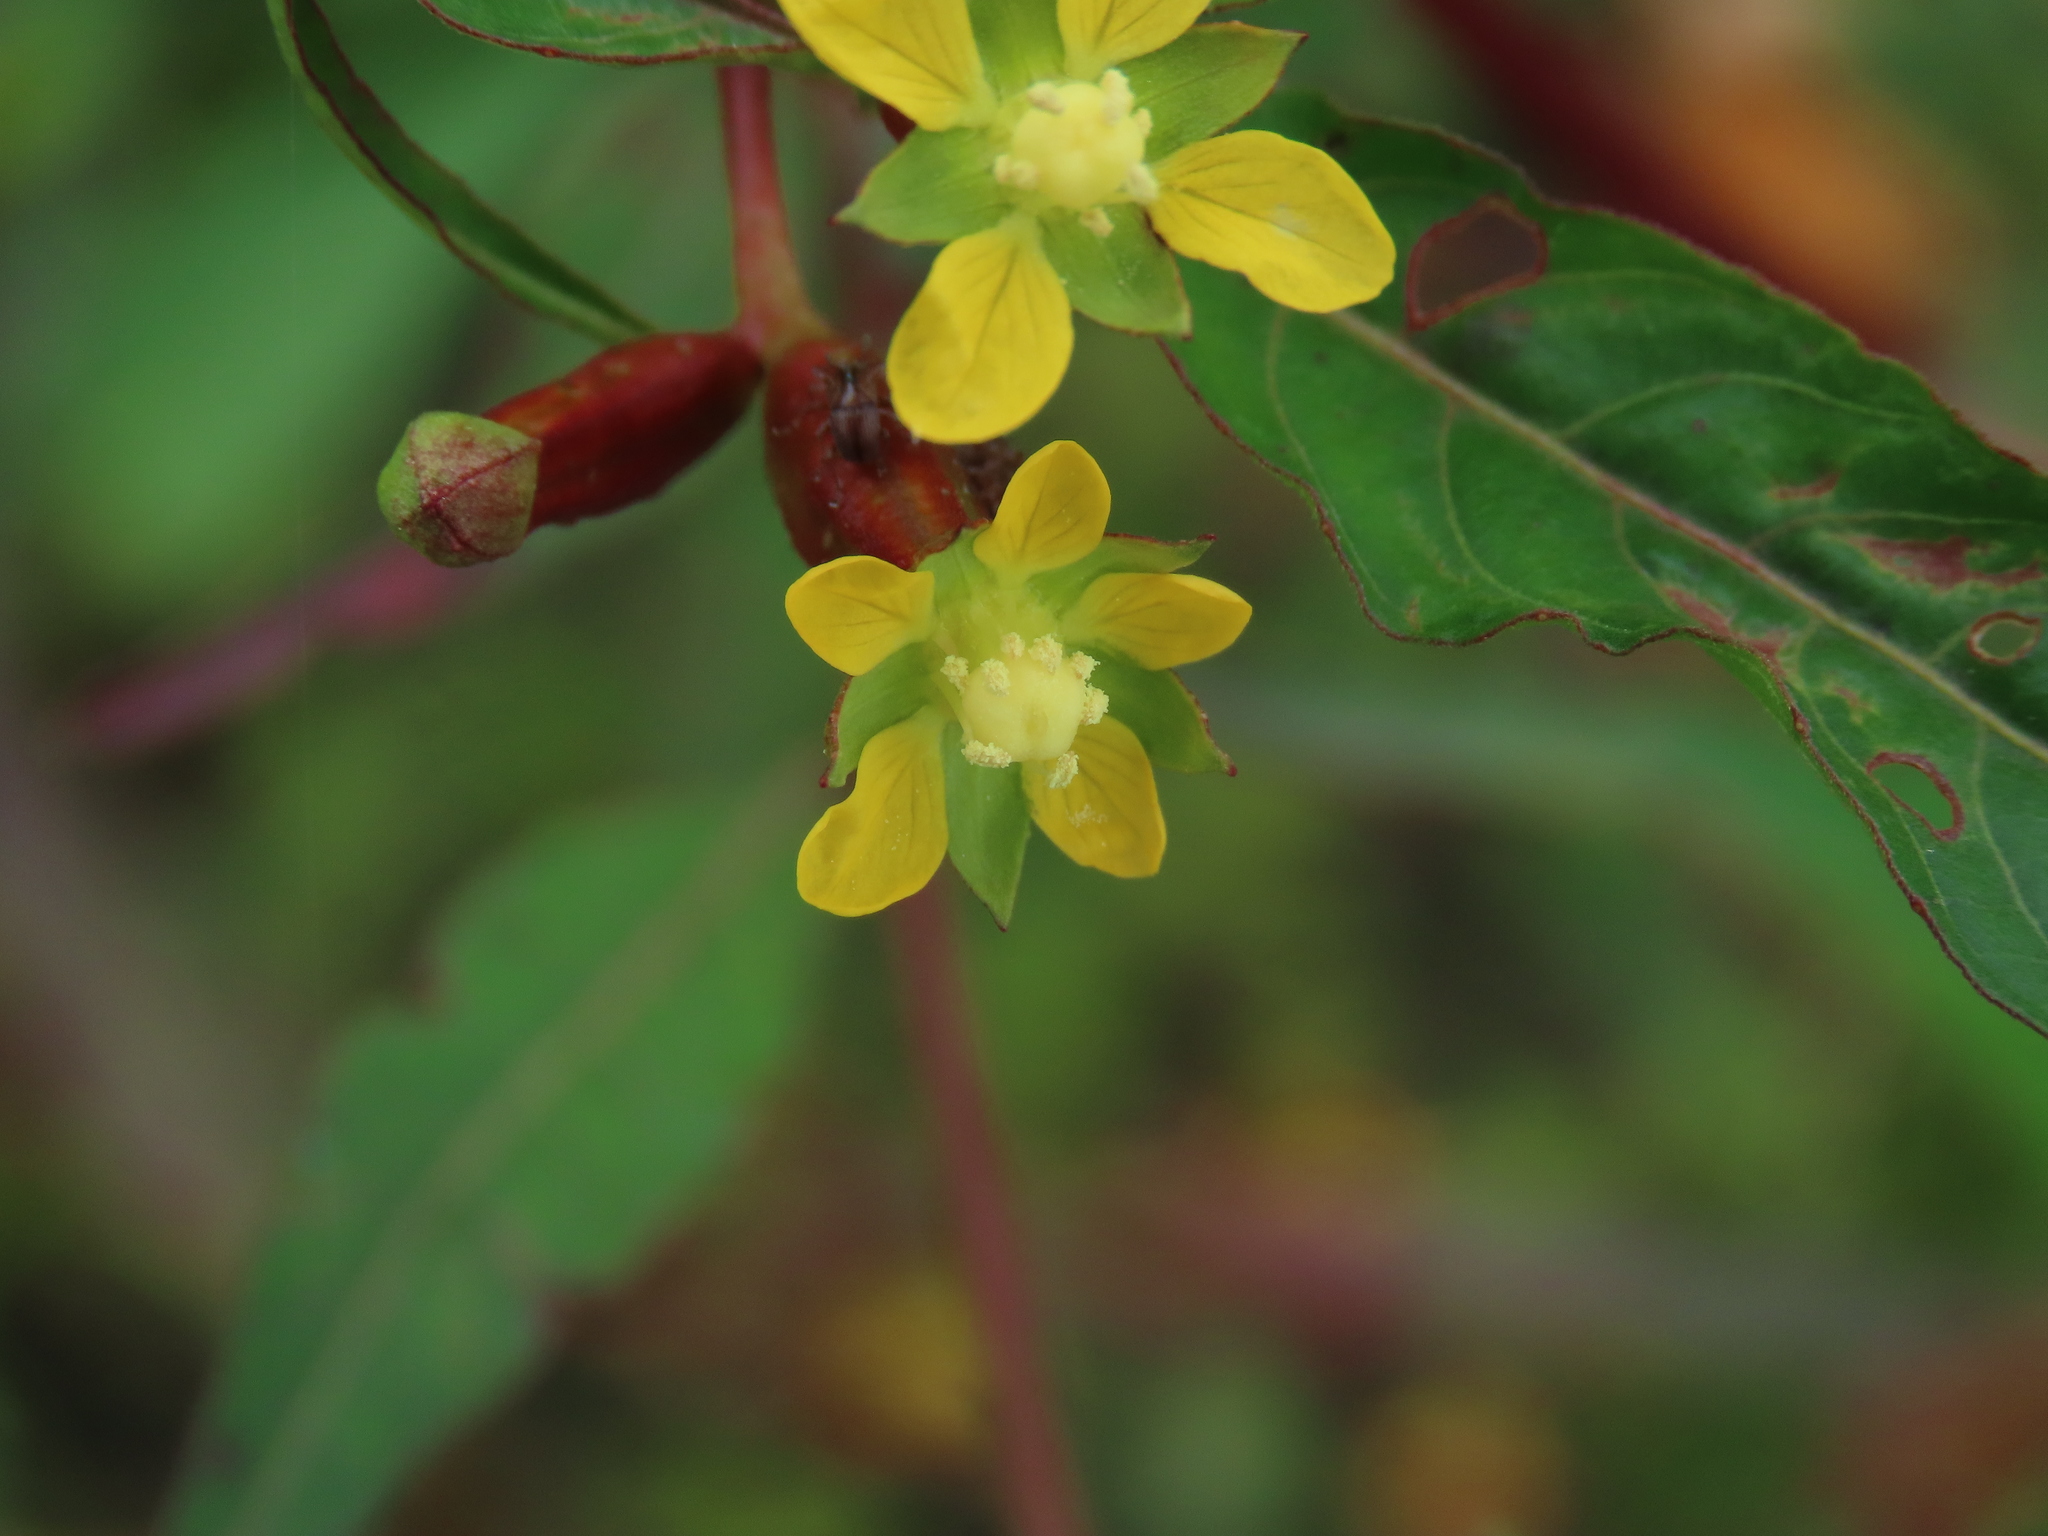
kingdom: Plantae
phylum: Tracheophyta
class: Magnoliopsida
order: Myrtales
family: Onagraceae
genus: Ludwigia
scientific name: Ludwigia erecta
